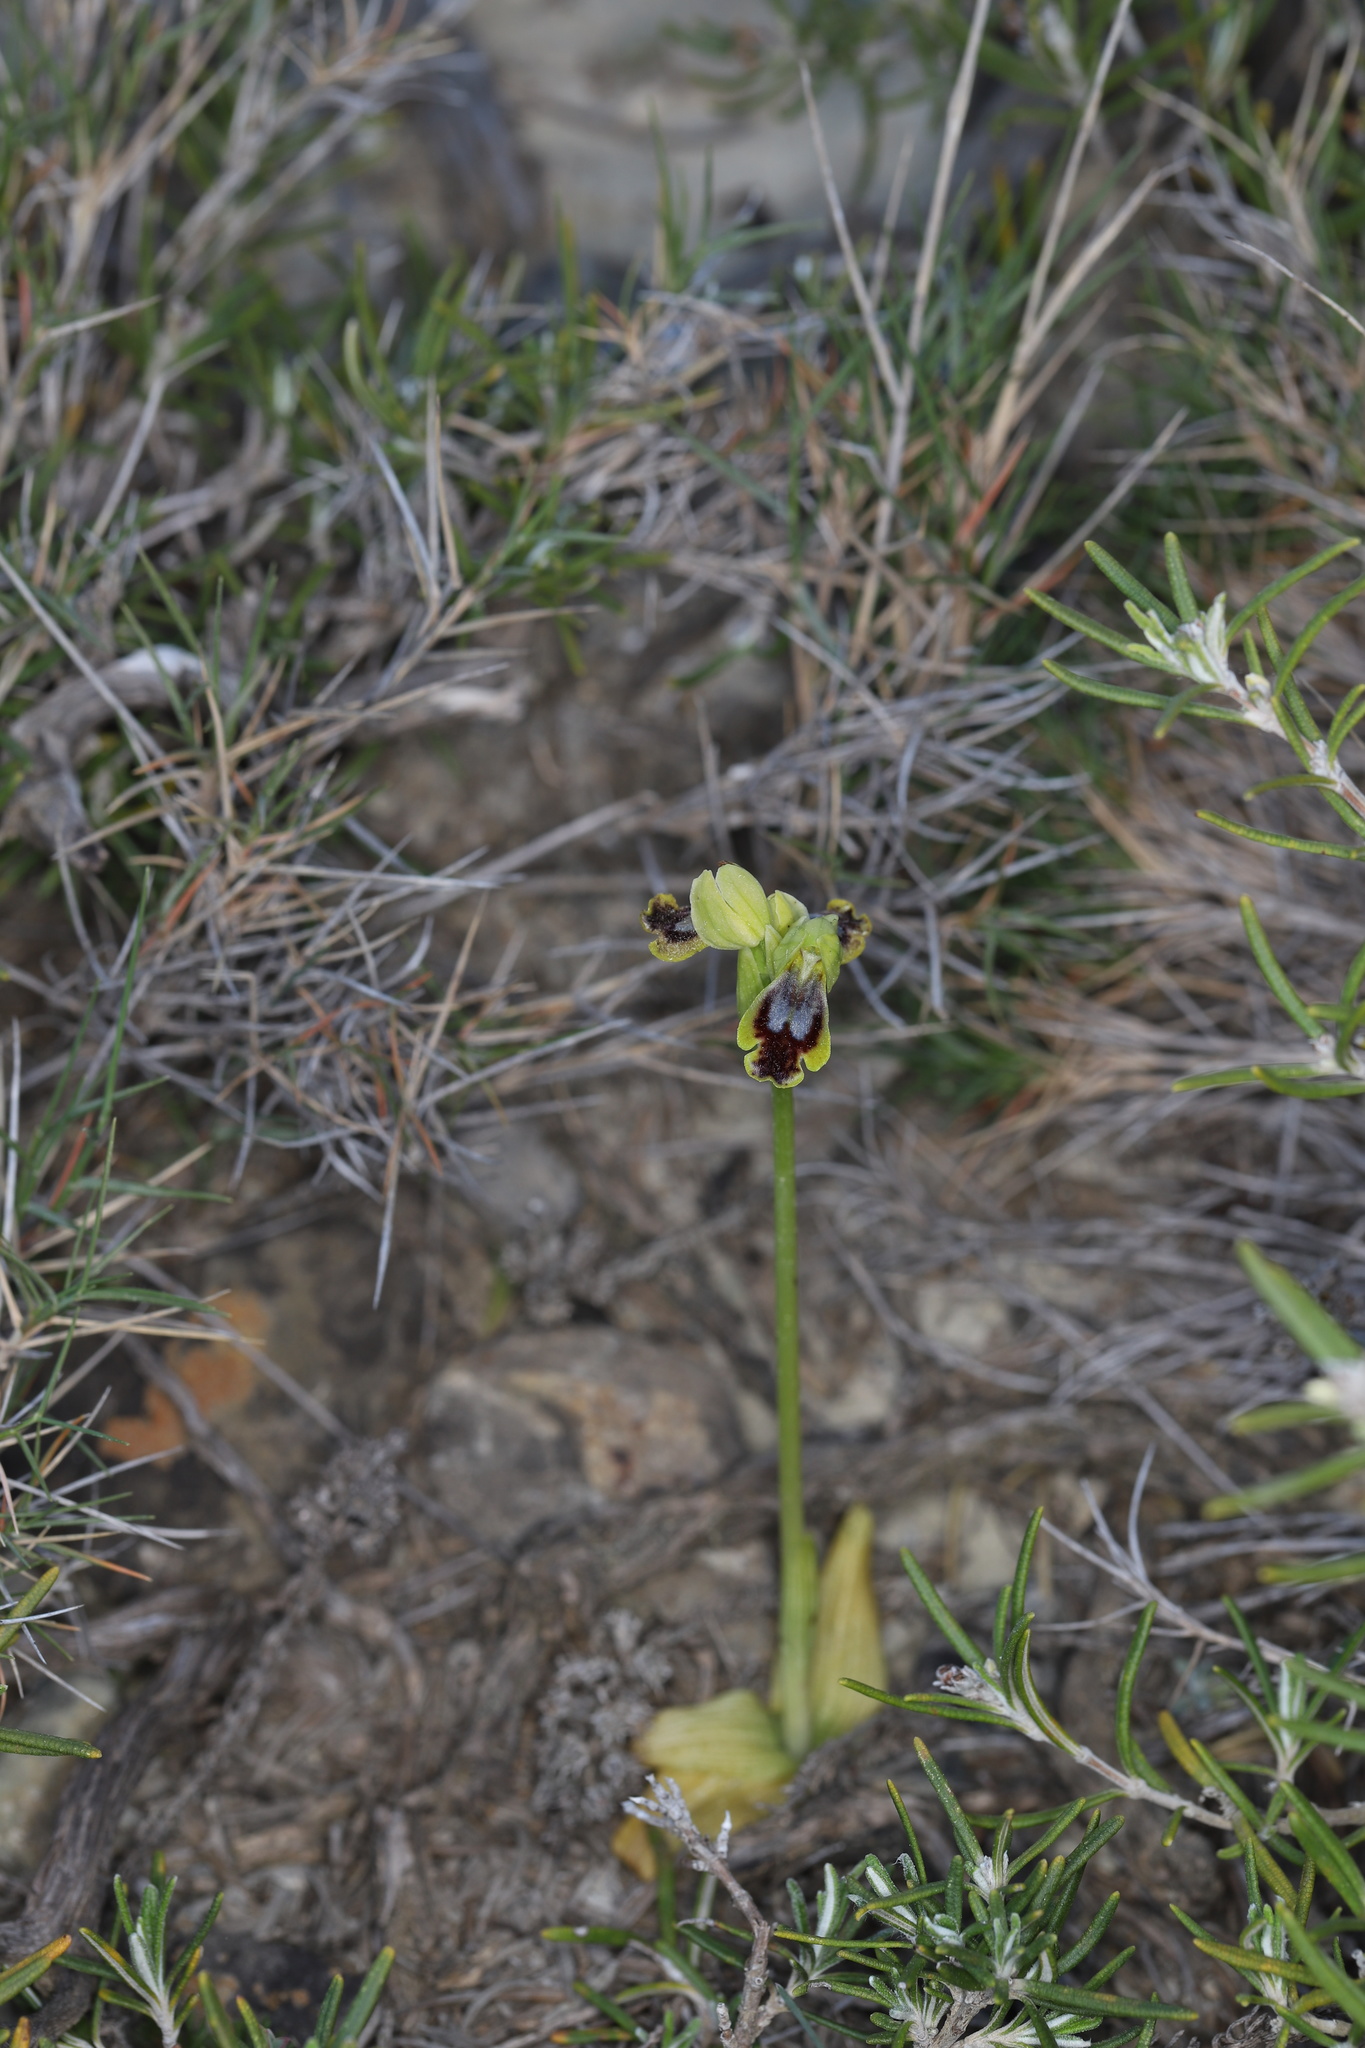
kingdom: Plantae
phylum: Tracheophyta
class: Liliopsida
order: Asparagales
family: Orchidaceae
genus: Ophrys
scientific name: Ophrys fusca
